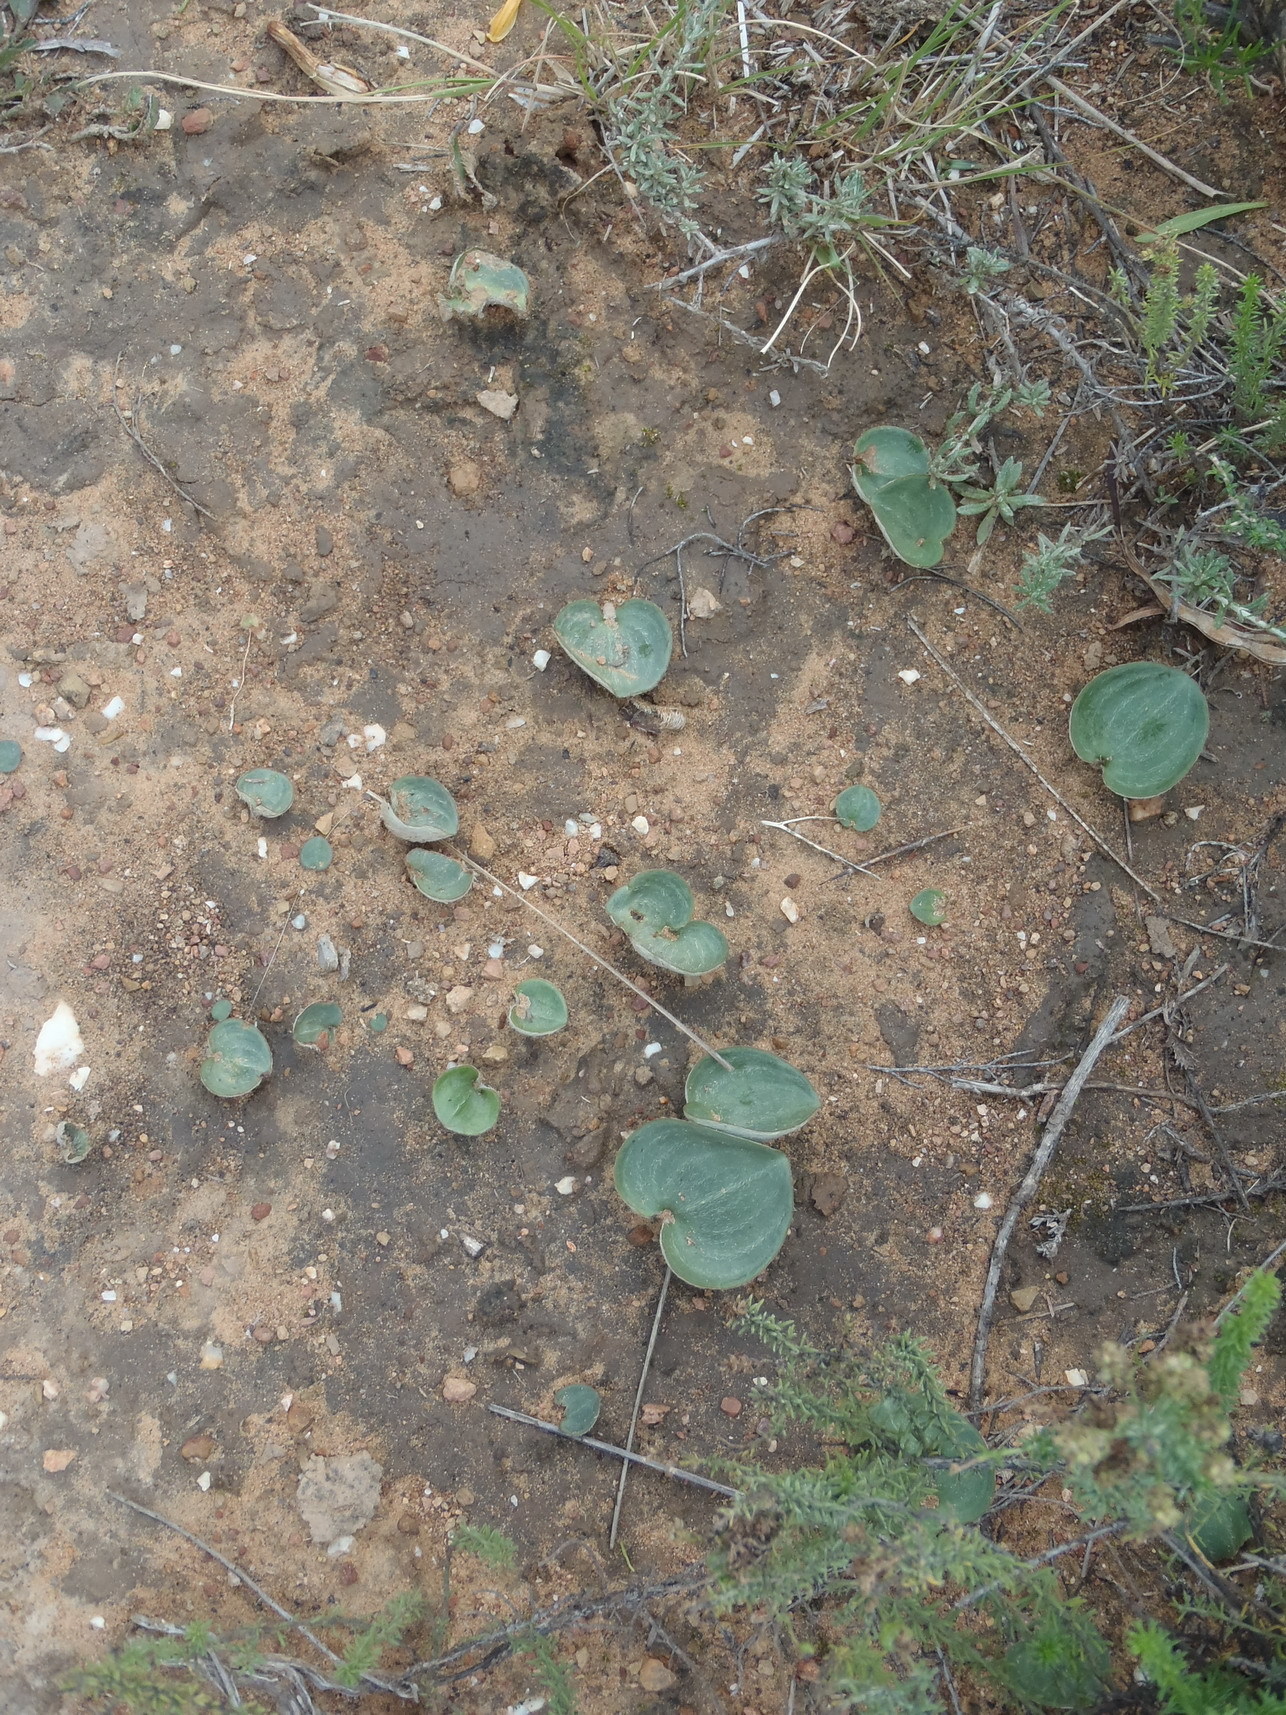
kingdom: Plantae
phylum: Tracheophyta
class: Liliopsida
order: Asparagales
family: Asparagaceae
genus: Eriospermum
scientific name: Eriospermum porphyrium
